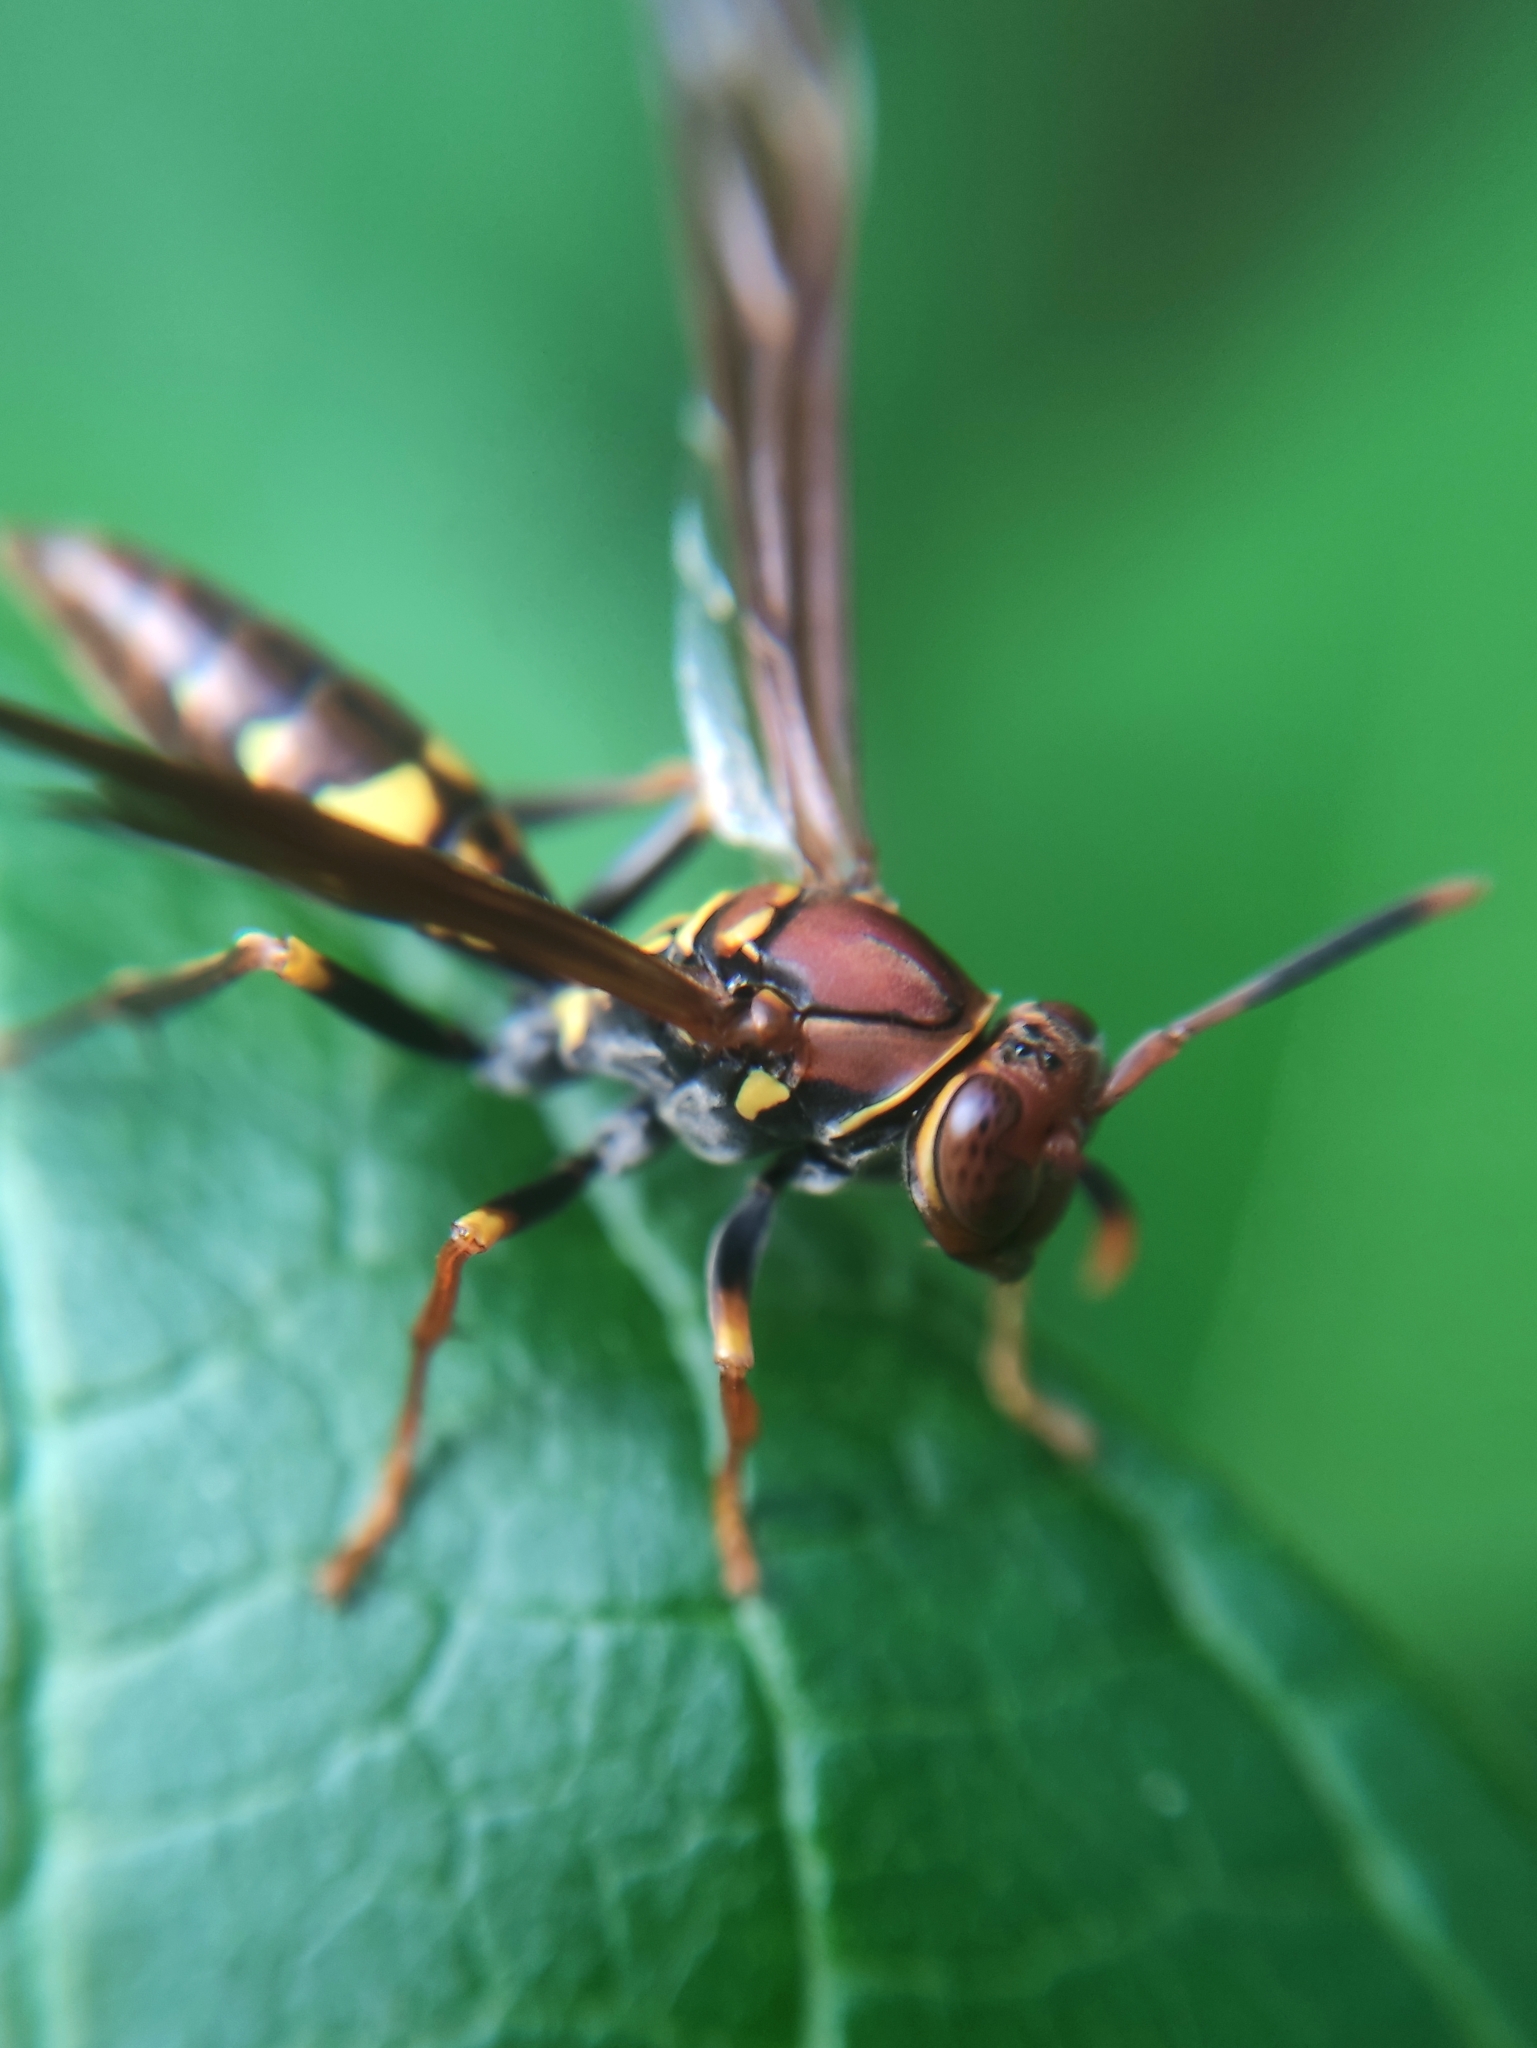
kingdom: Animalia
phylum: Arthropoda
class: Insecta
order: Hymenoptera
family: Eumenidae
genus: Polistes
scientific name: Polistes versicolor
